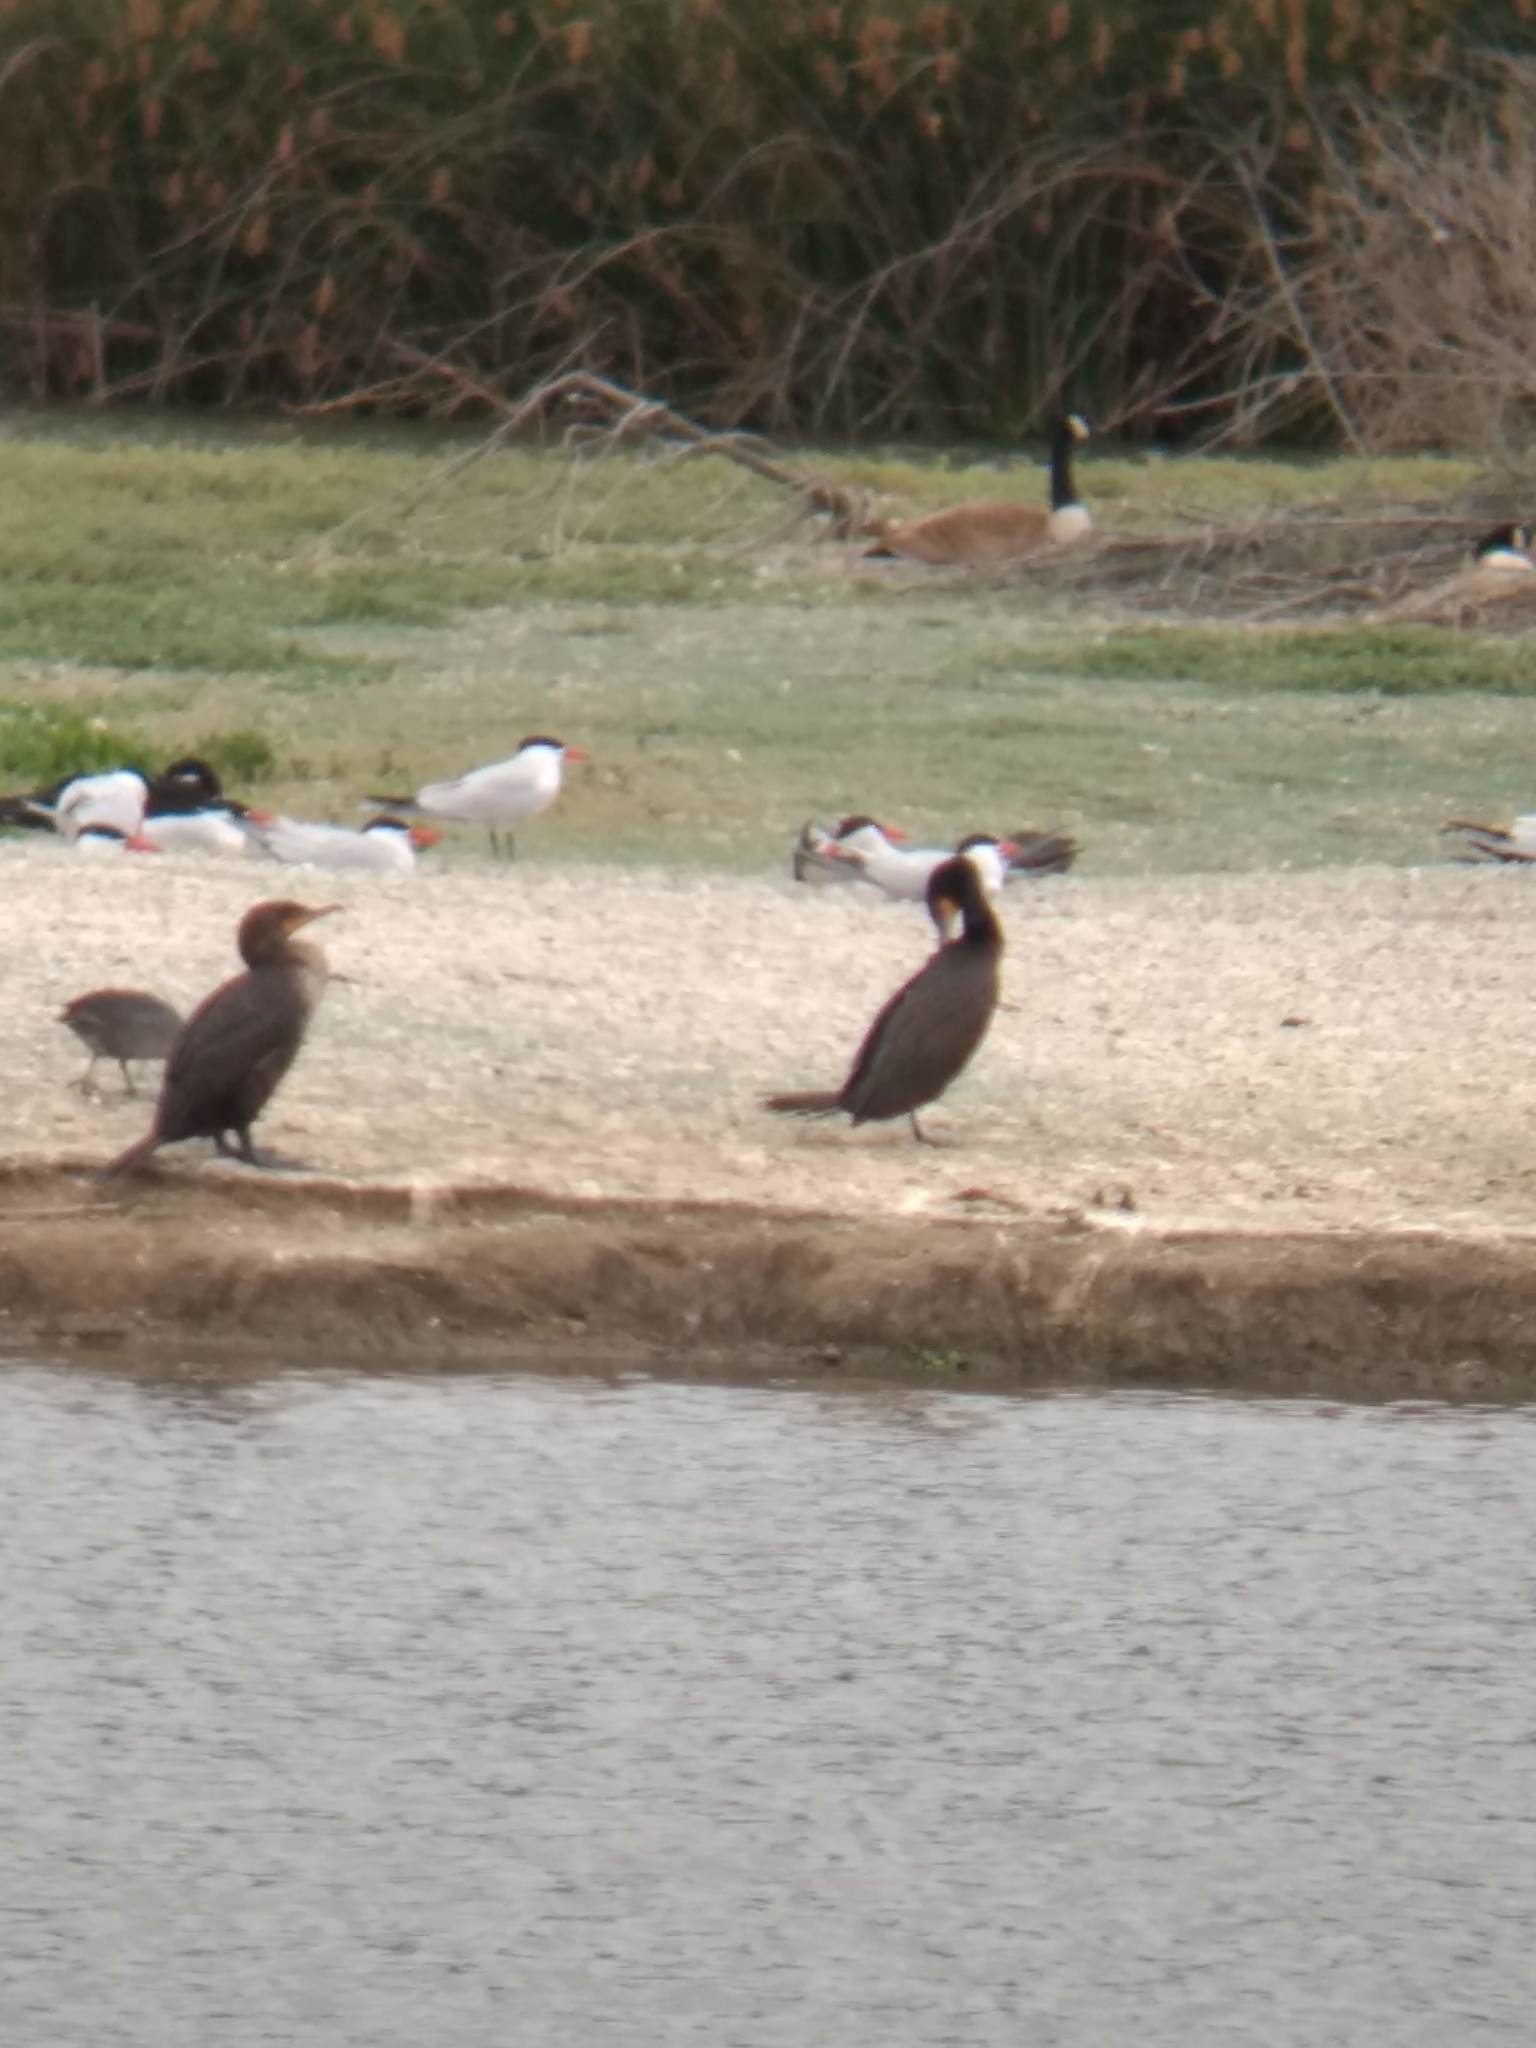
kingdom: Animalia
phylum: Chordata
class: Aves
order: Suliformes
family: Phalacrocoracidae
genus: Phalacrocorax
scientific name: Phalacrocorax auritus
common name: Double-crested cormorant
